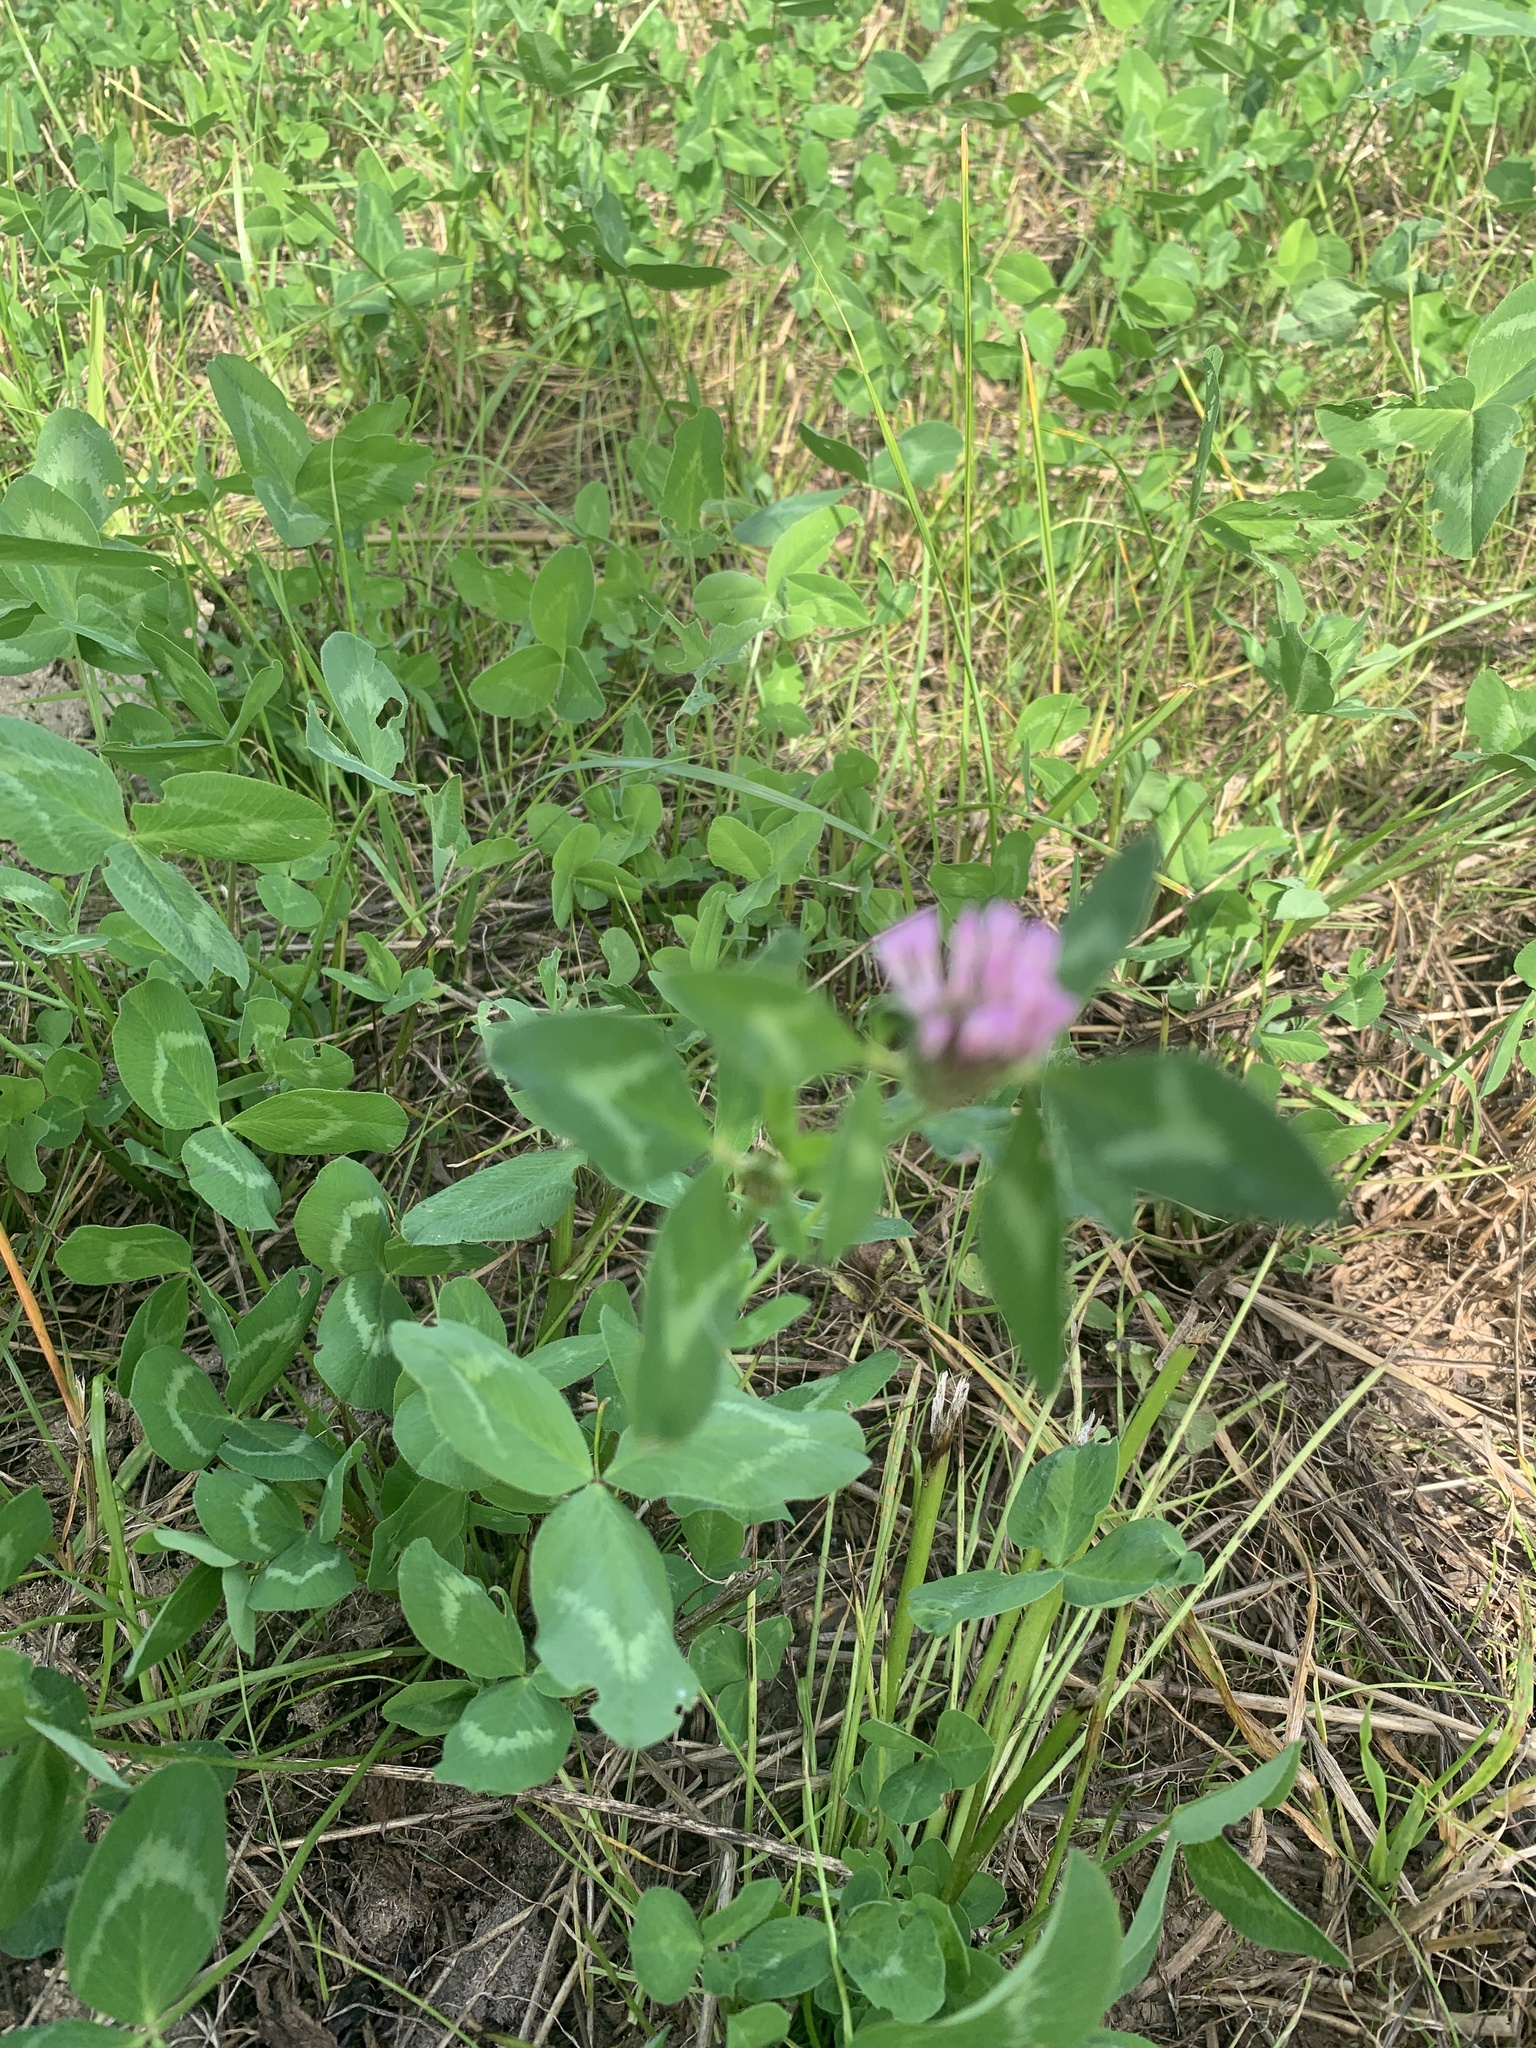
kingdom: Plantae
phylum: Tracheophyta
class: Magnoliopsida
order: Fabales
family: Fabaceae
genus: Trifolium
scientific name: Trifolium pratense
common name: Red clover
